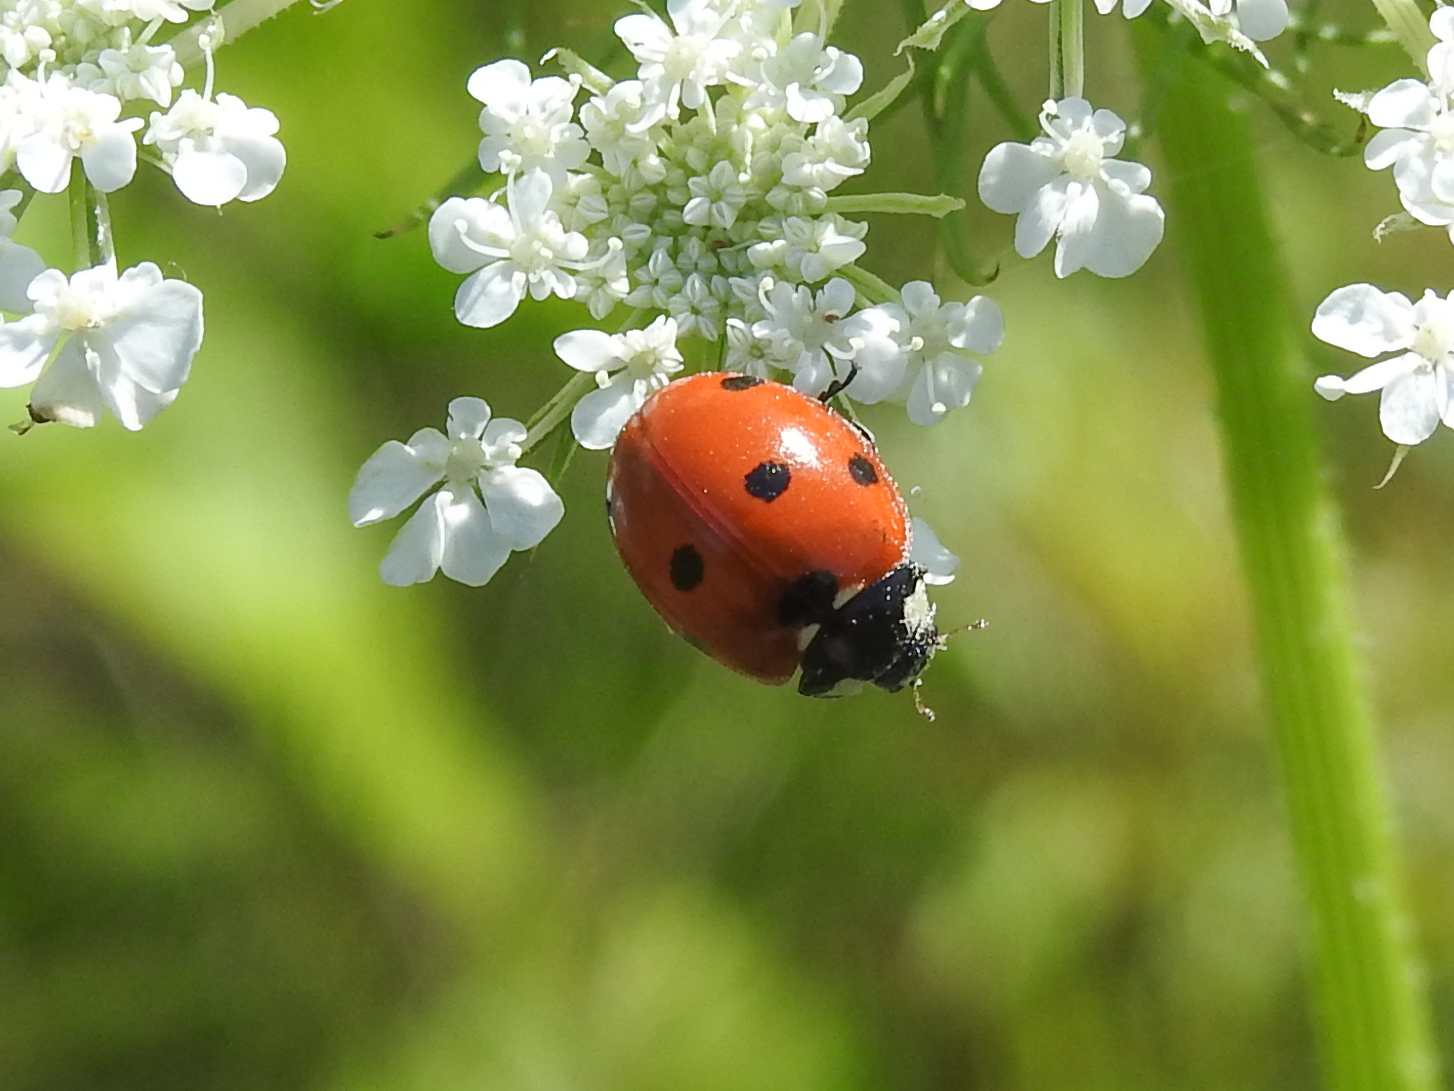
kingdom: Animalia
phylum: Arthropoda
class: Insecta
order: Coleoptera
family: Coccinellidae
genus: Coccinella
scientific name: Coccinella septempunctata
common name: Sevenspotted lady beetle
